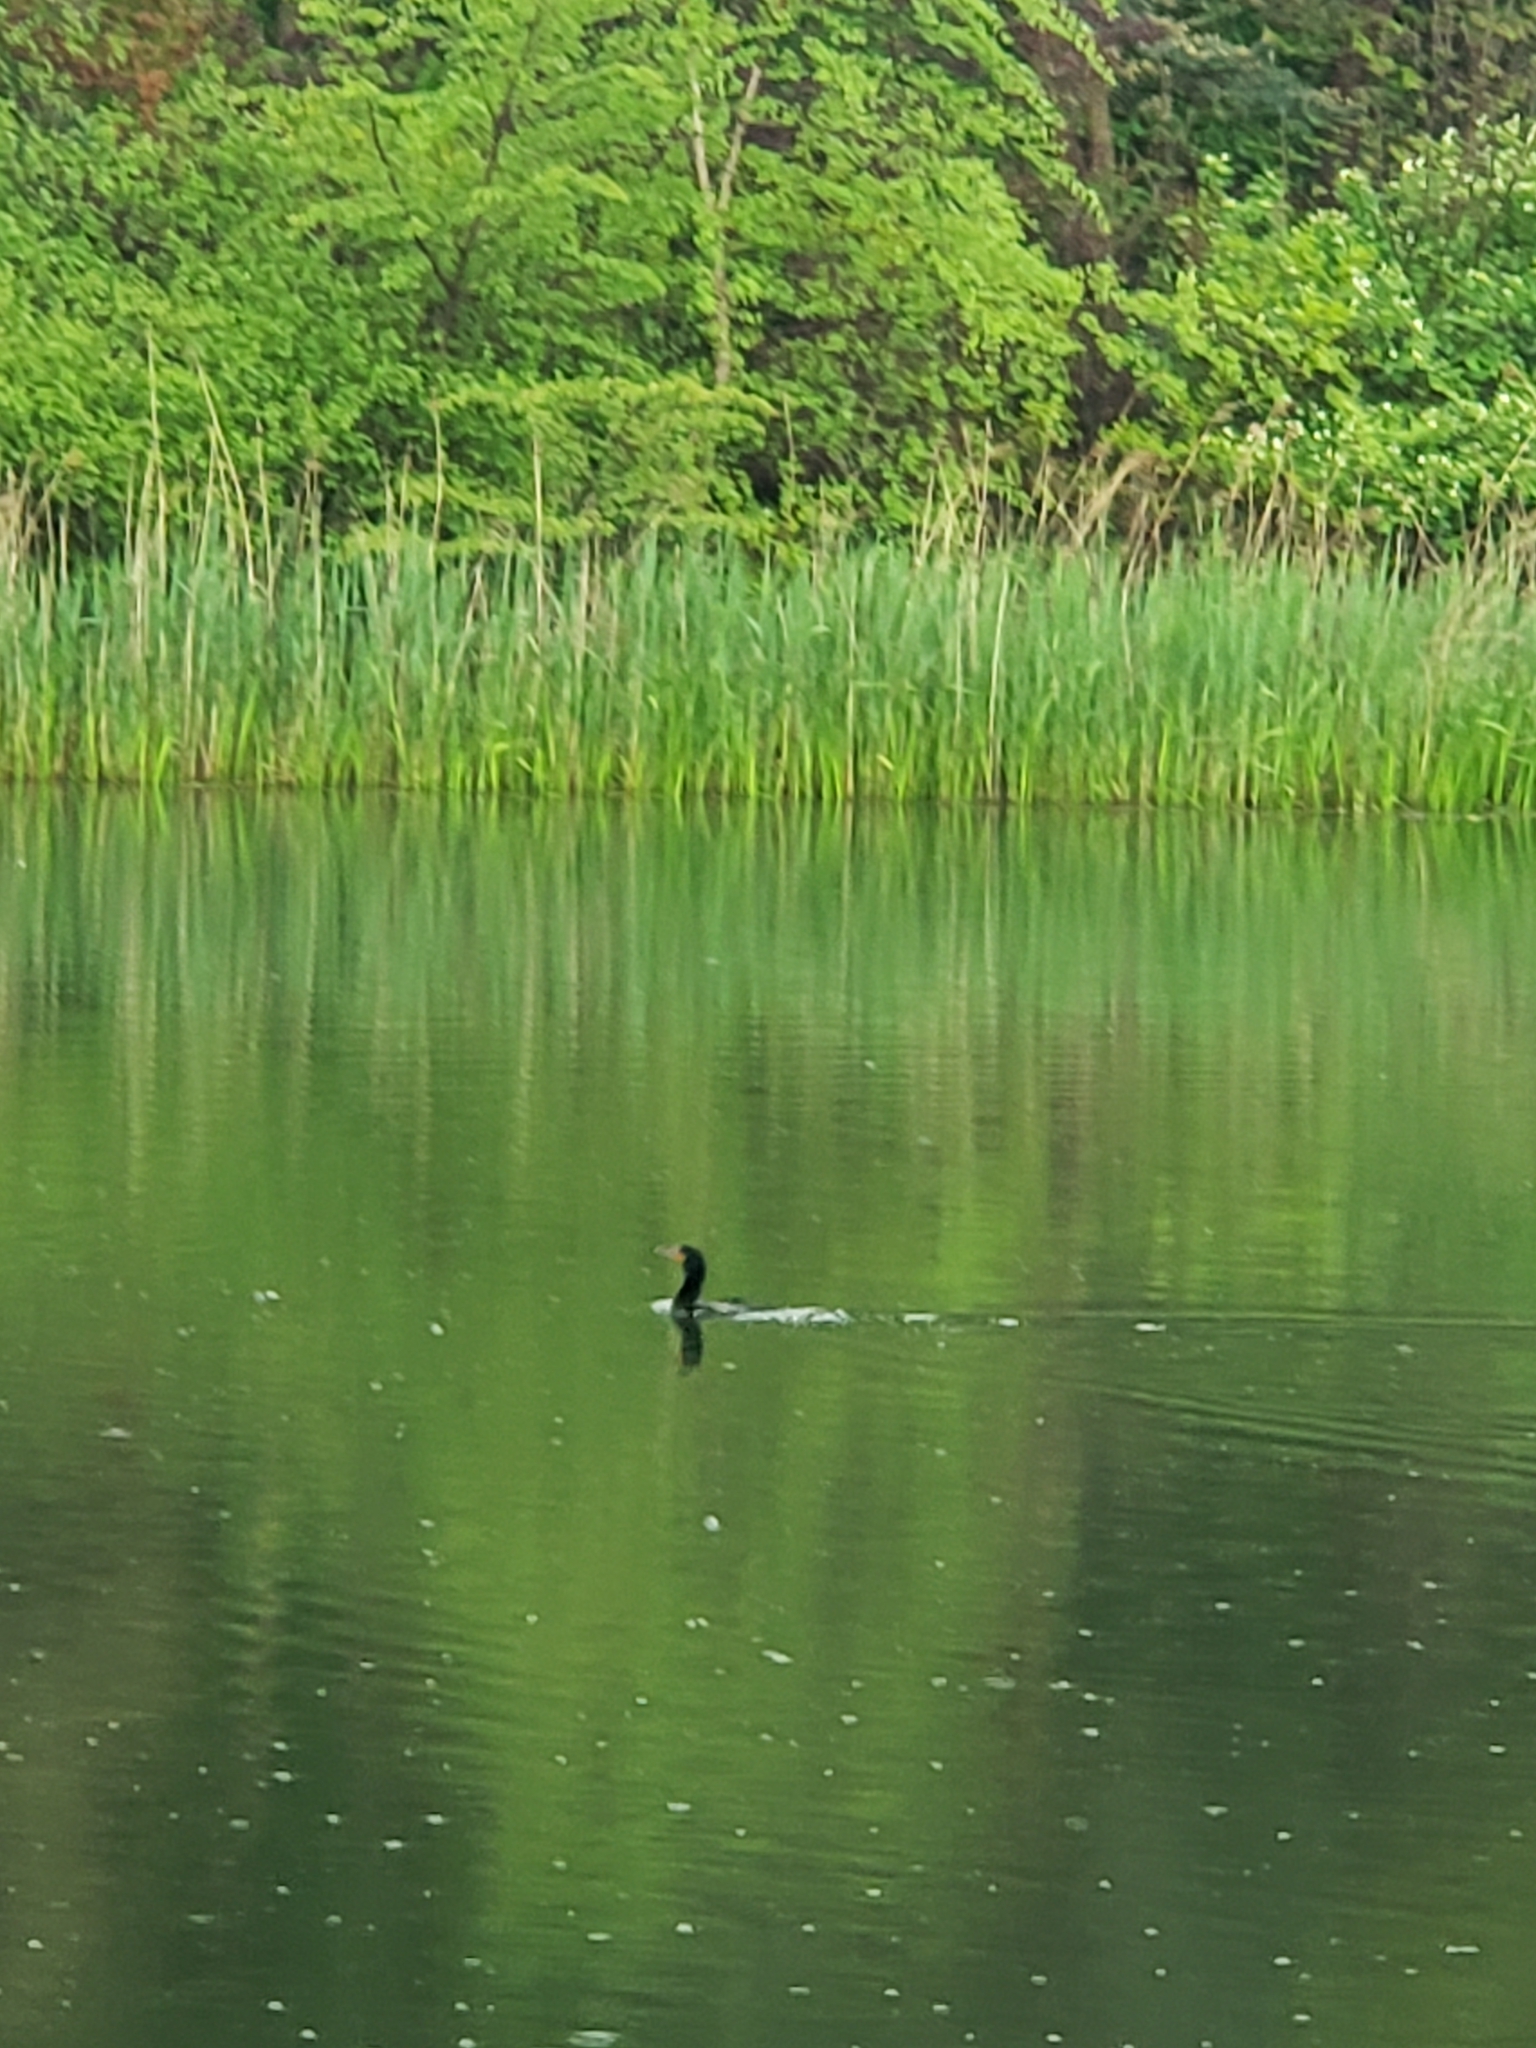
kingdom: Animalia
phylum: Chordata
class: Aves
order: Suliformes
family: Phalacrocoracidae
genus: Phalacrocorax
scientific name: Phalacrocorax auritus
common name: Double-crested cormorant
